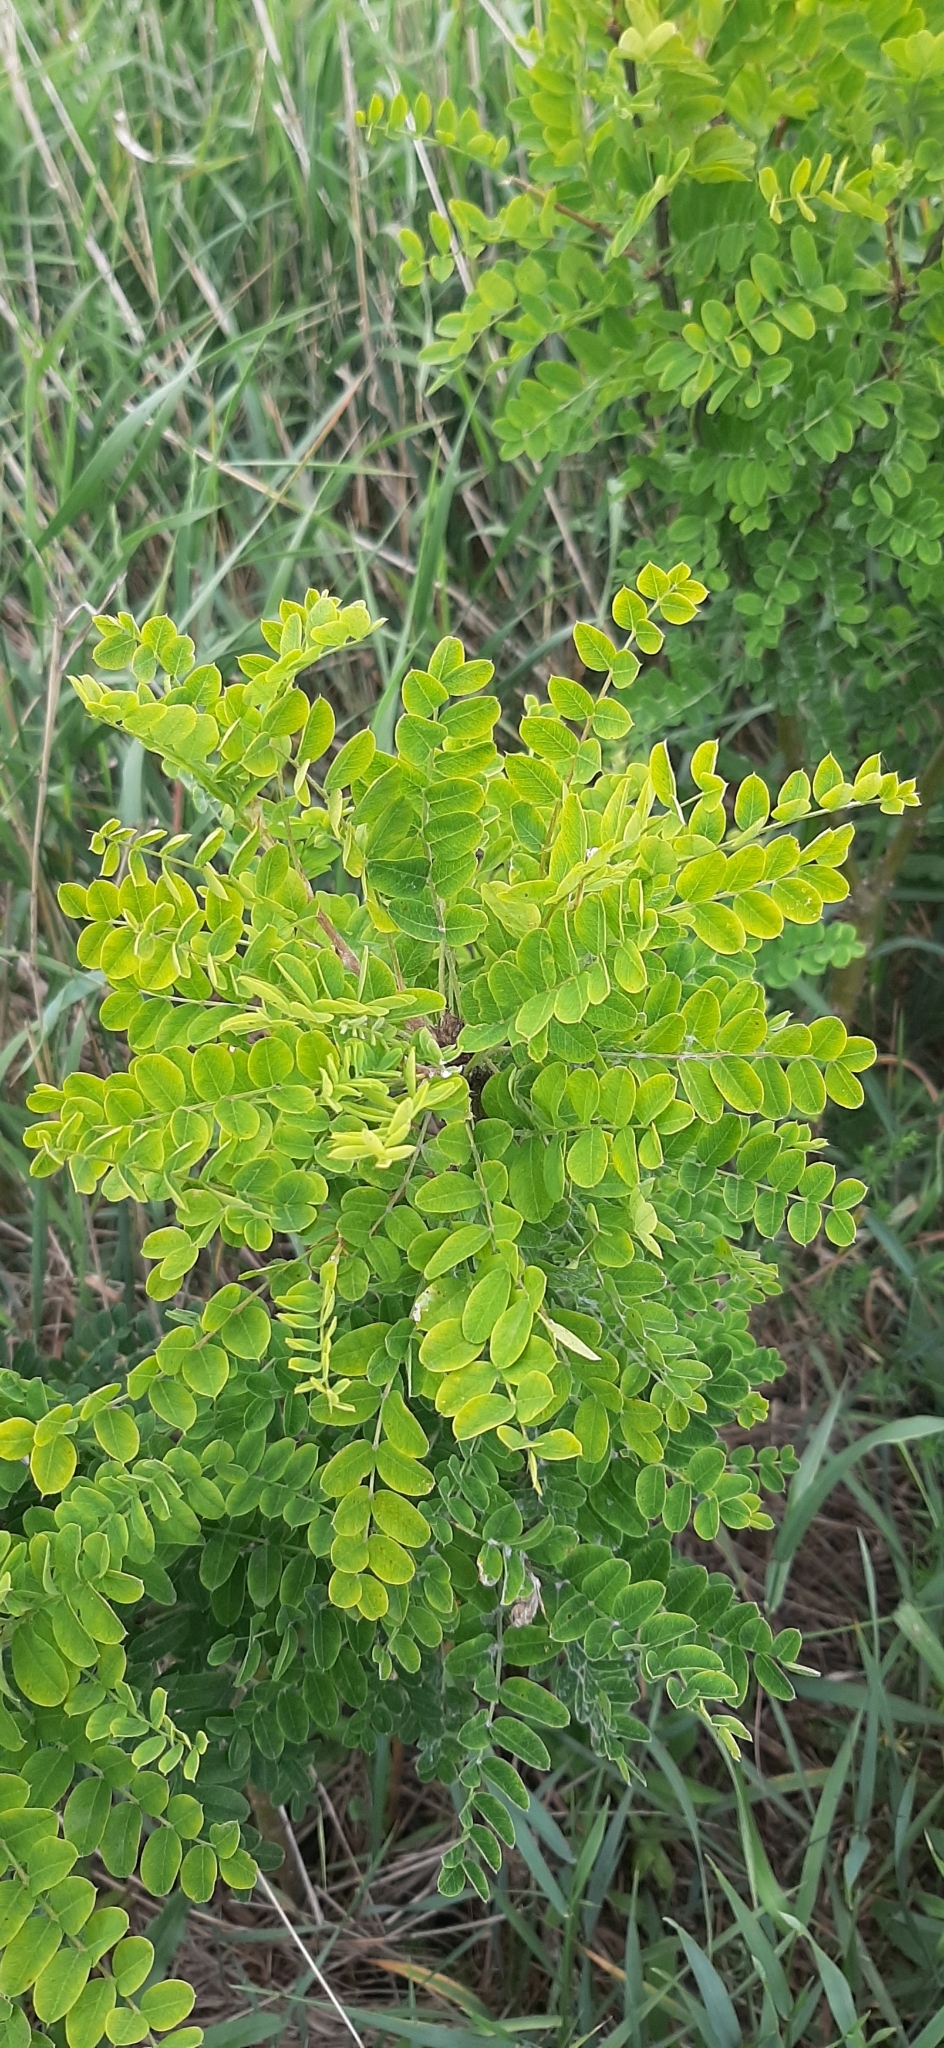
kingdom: Plantae
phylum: Tracheophyta
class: Magnoliopsida
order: Fabales
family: Fabaceae
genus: Caragana
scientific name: Caragana arborescens
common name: Siberian peashrub
